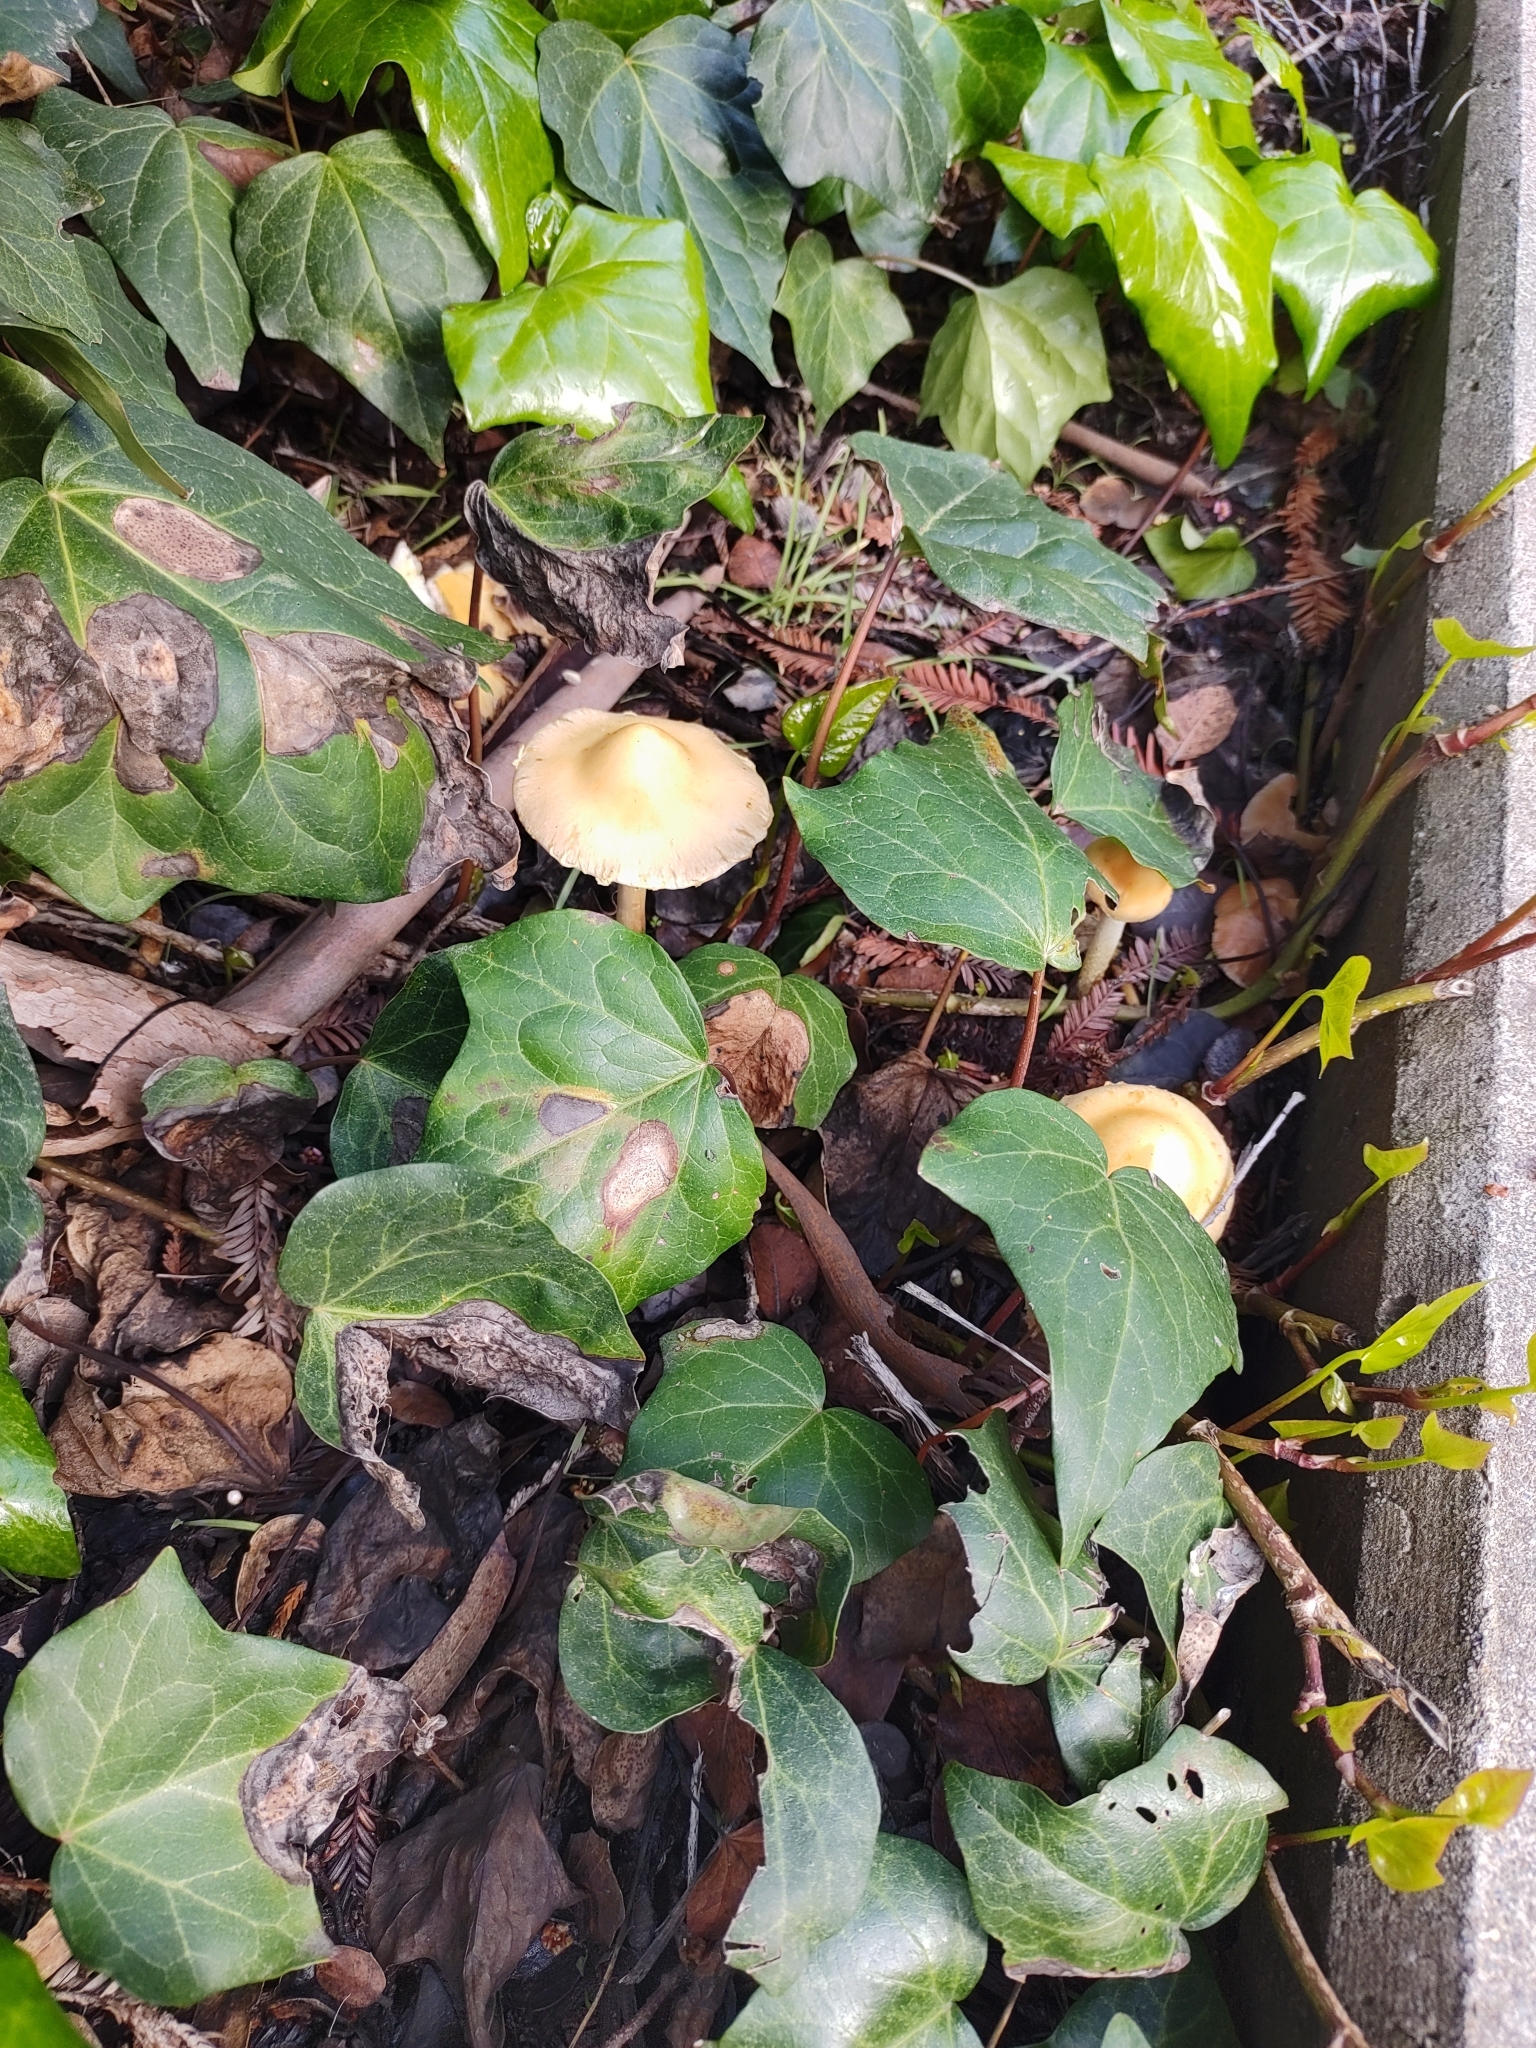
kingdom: Fungi
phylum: Basidiomycota
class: Agaricomycetes
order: Agaricales
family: Strophariaceae
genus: Leratiomyces
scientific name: Leratiomyces percevalii
